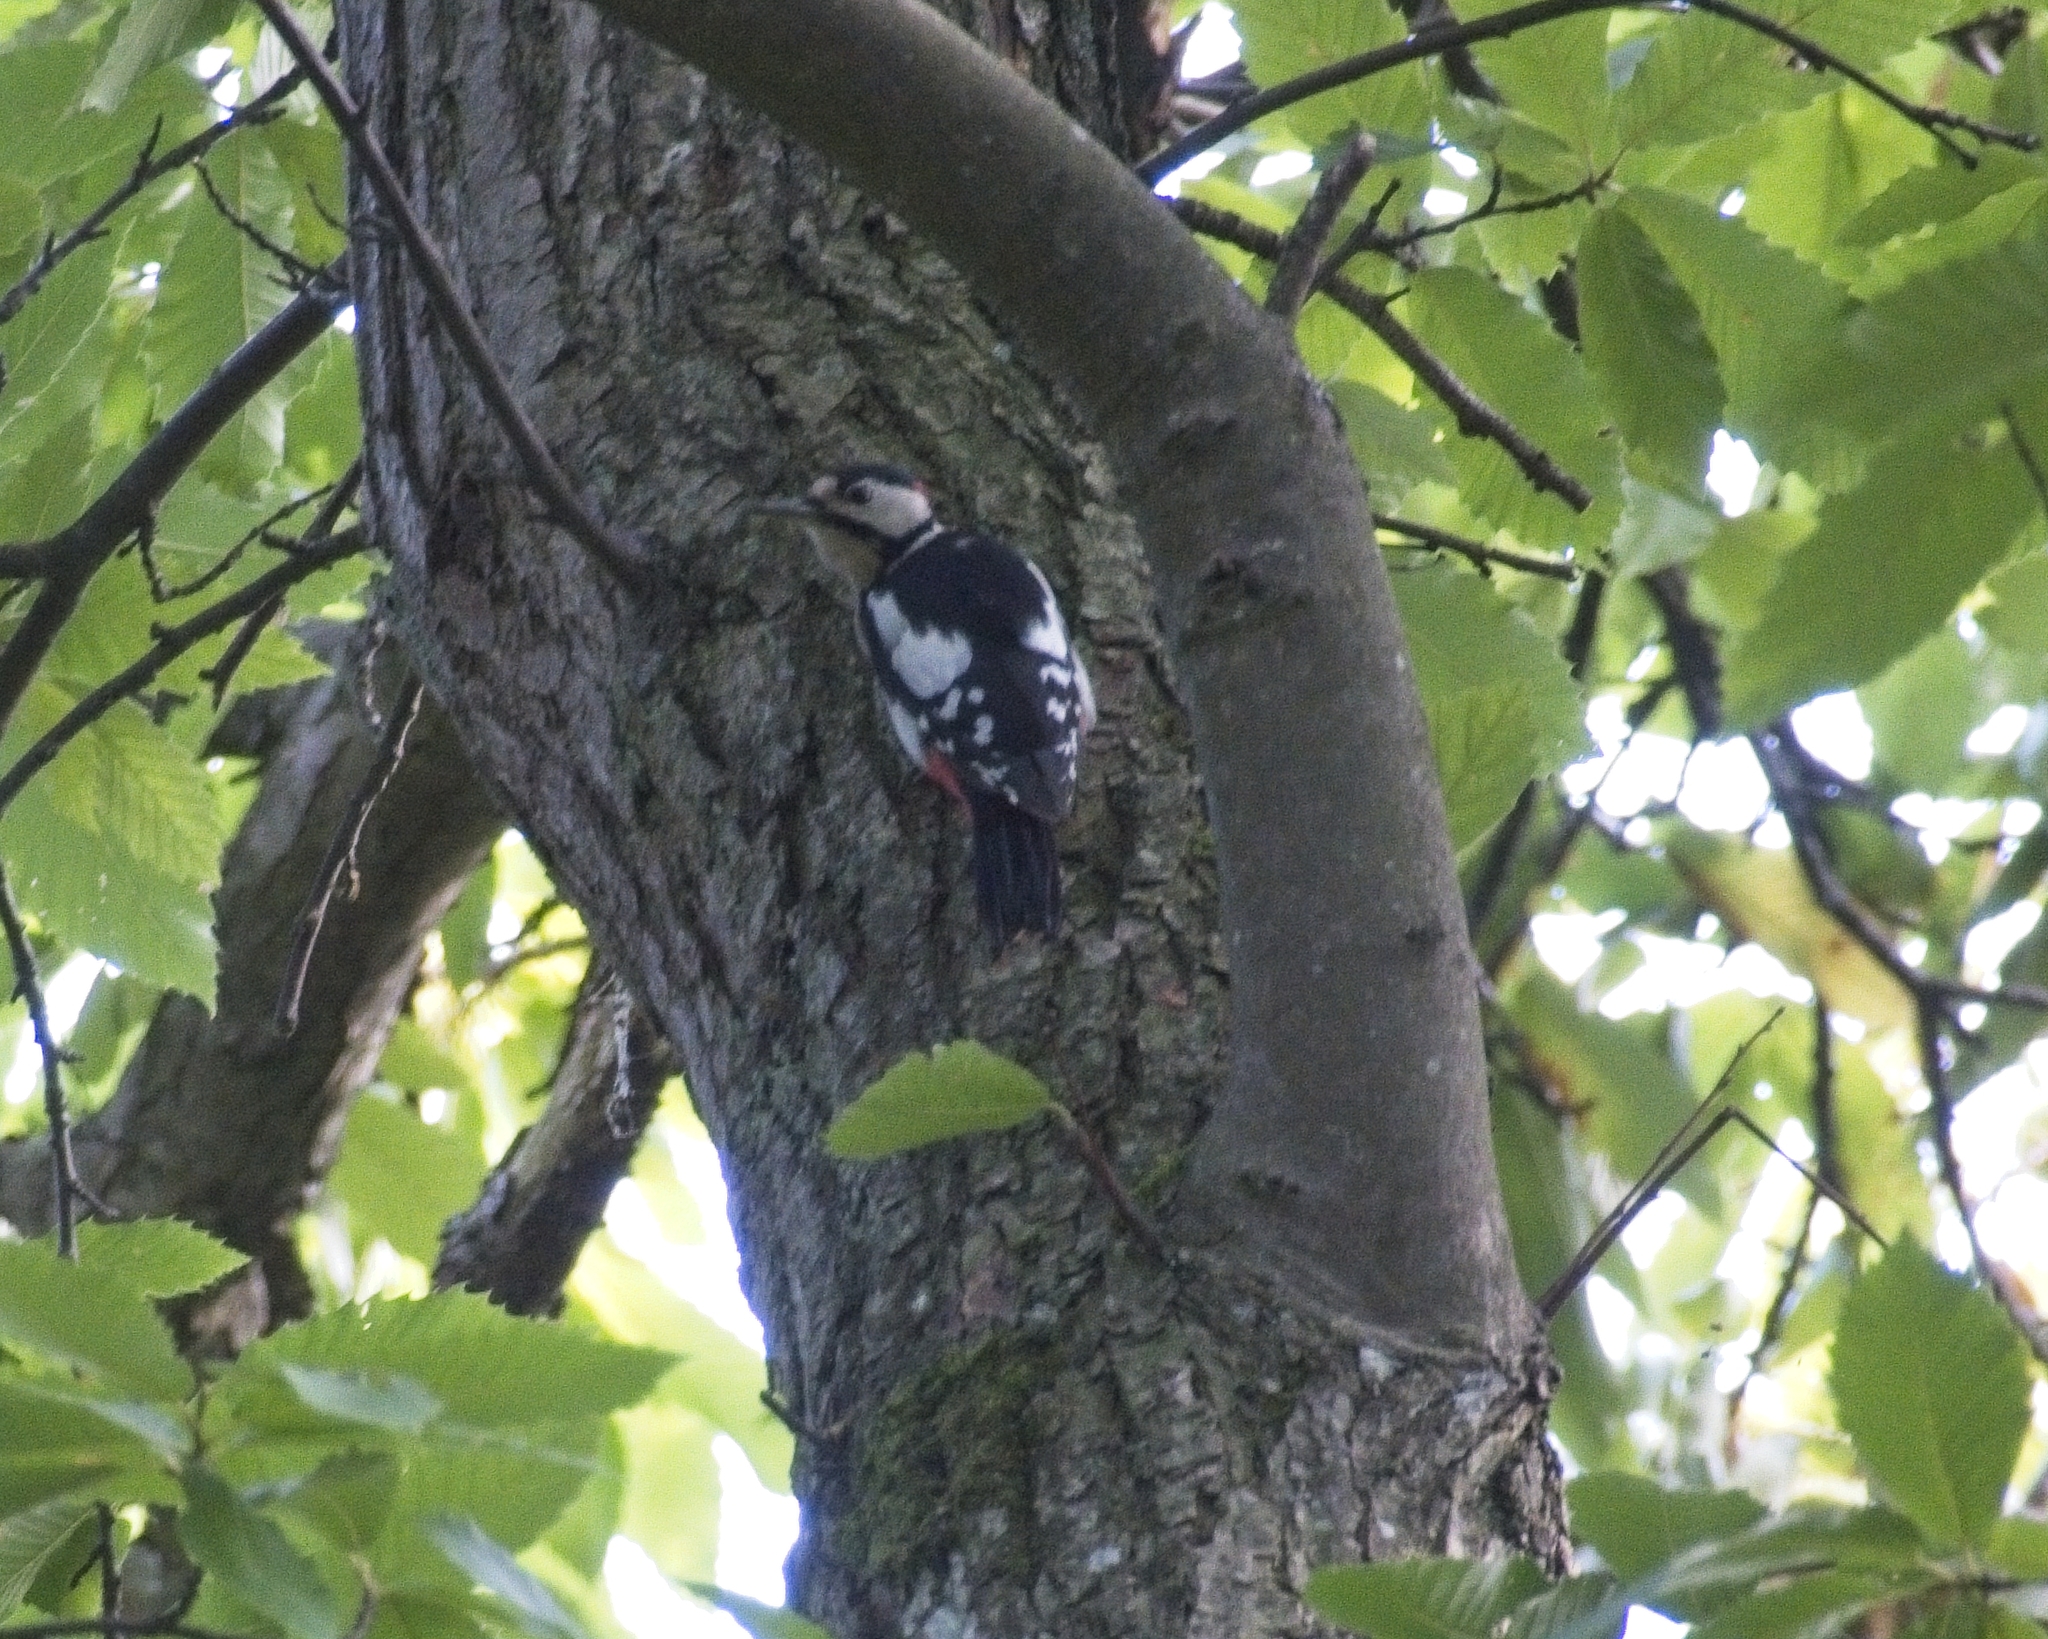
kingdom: Animalia
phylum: Chordata
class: Aves
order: Piciformes
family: Picidae
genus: Dendrocopos
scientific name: Dendrocopos major
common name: Great spotted woodpecker
